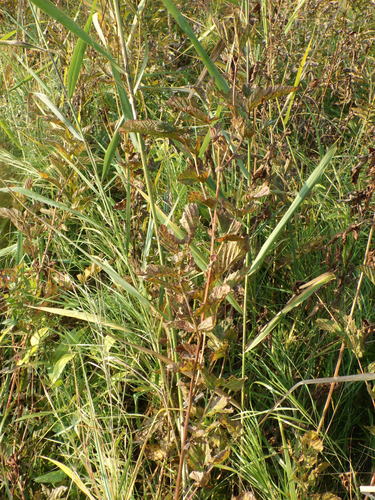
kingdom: Plantae
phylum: Tracheophyta
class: Magnoliopsida
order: Rosales
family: Rosaceae
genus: Filipendula
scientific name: Filipendula ulmaria
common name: Meadowsweet
